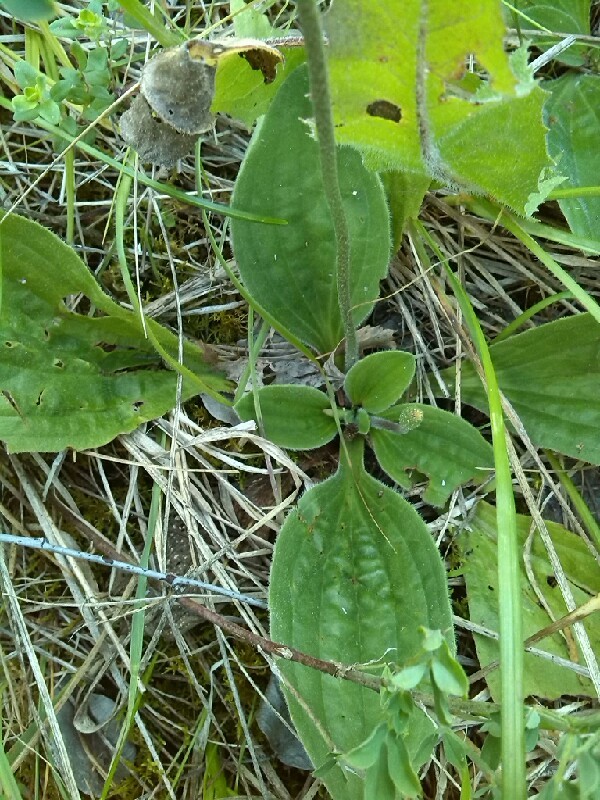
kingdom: Plantae
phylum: Tracheophyta
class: Magnoliopsida
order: Lamiales
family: Plantaginaceae
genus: Plantago
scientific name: Plantago media
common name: Hoary plantain
